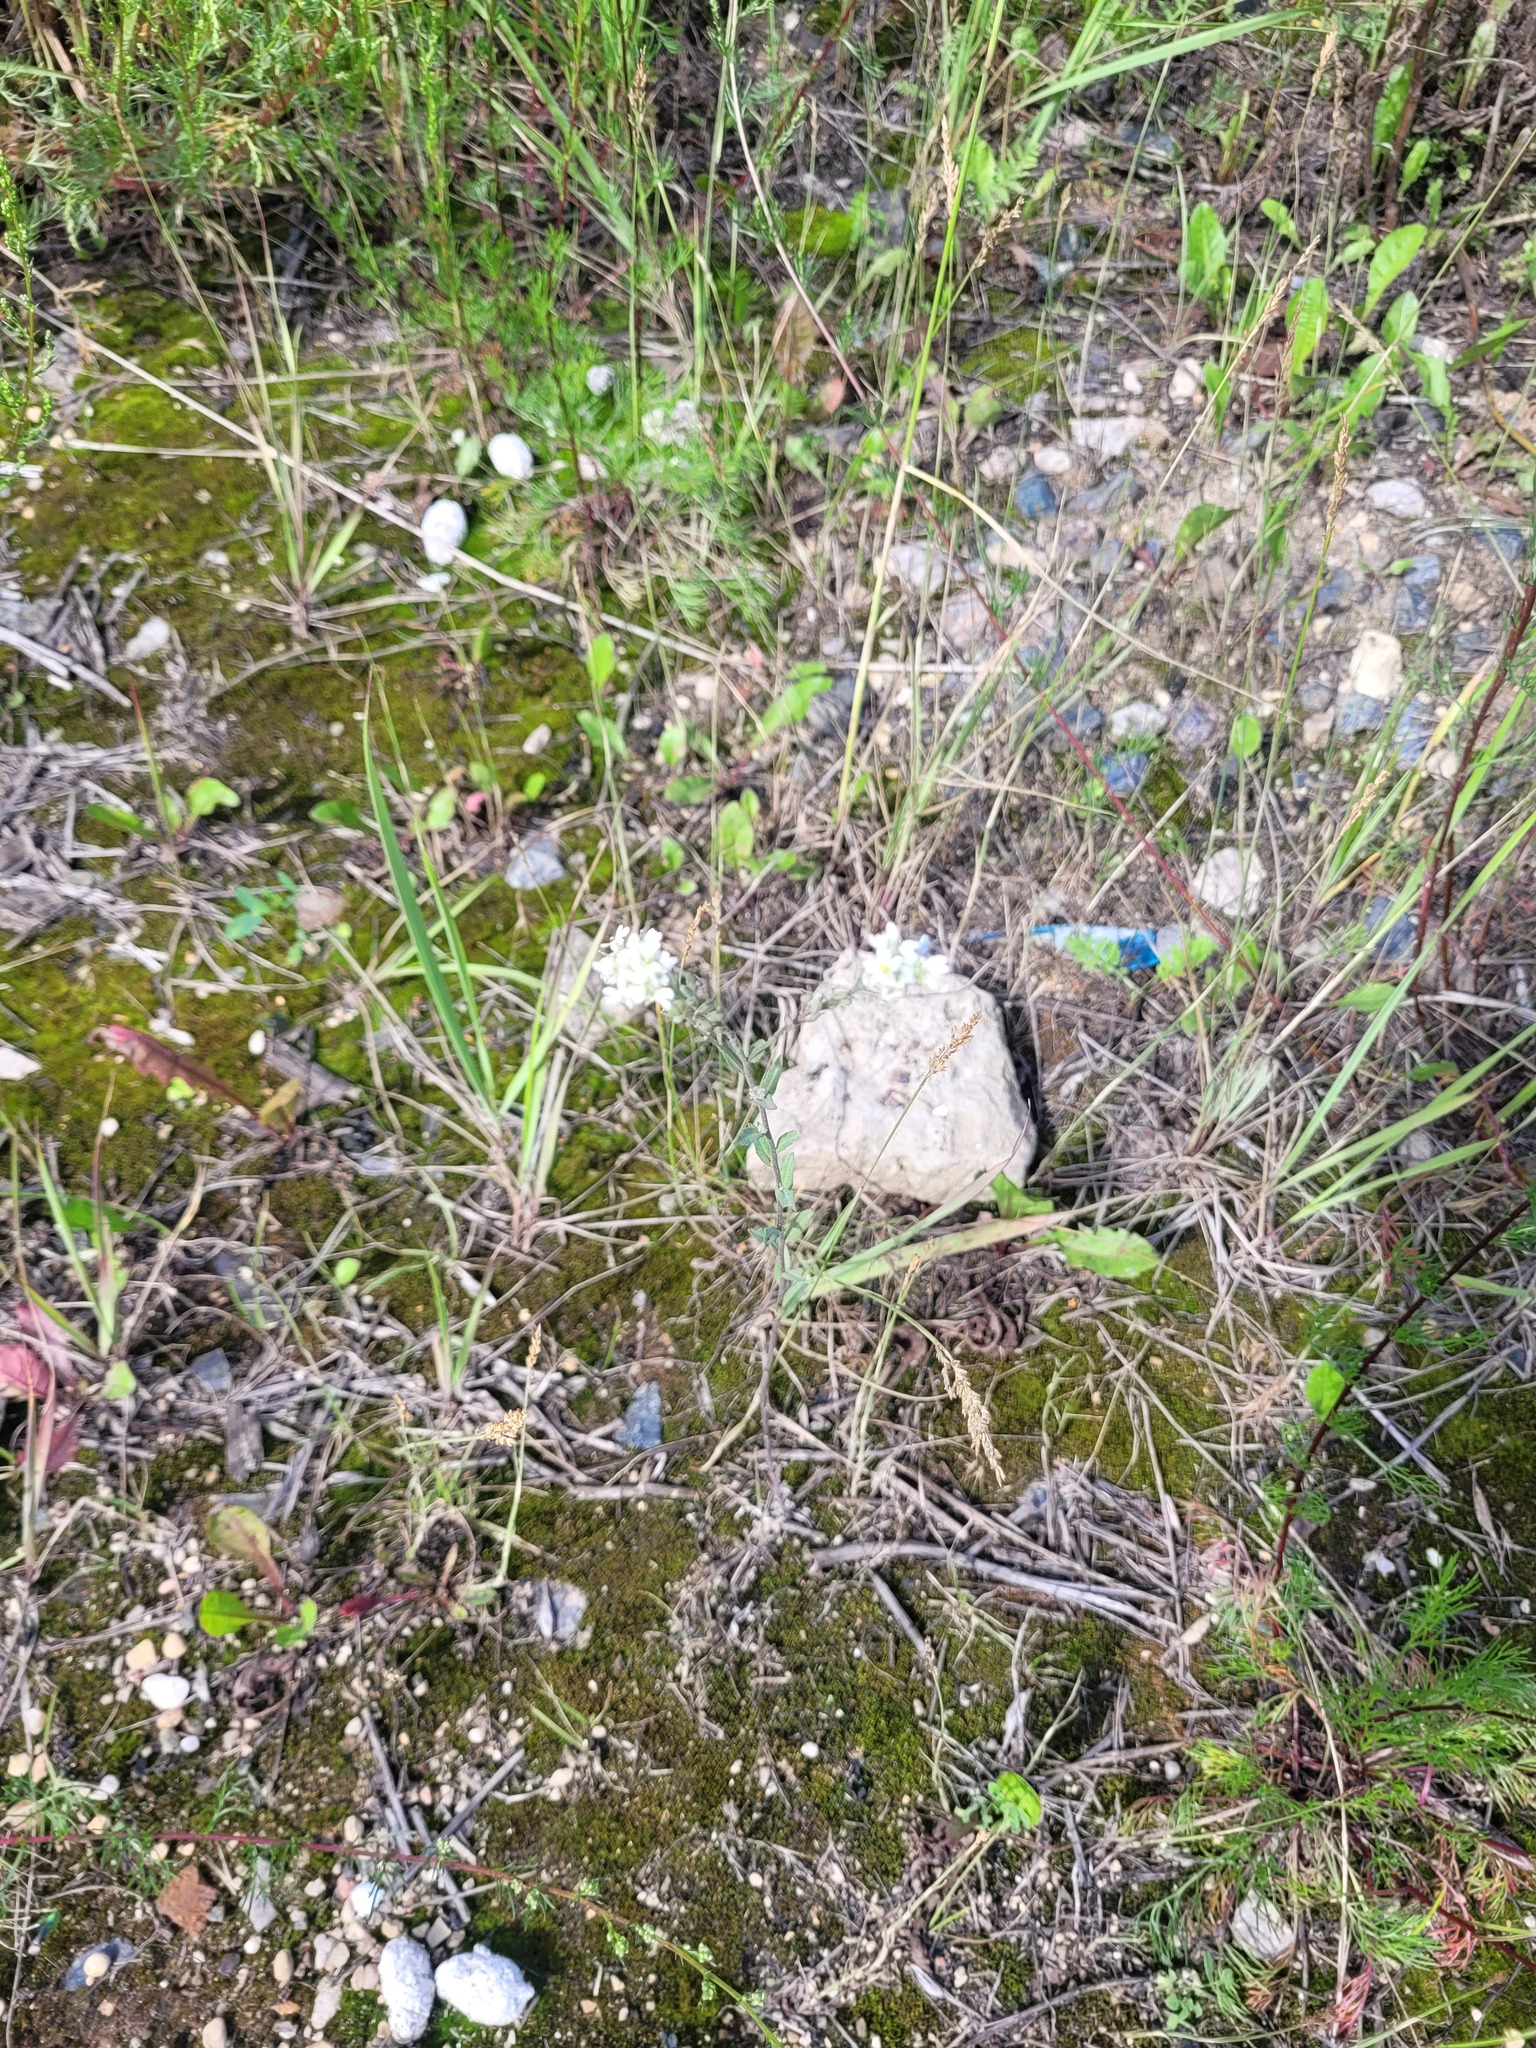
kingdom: Plantae
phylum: Tracheophyta
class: Magnoliopsida
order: Brassicales
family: Brassicaceae
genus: Berteroa
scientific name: Berteroa incana
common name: Hoary alison
